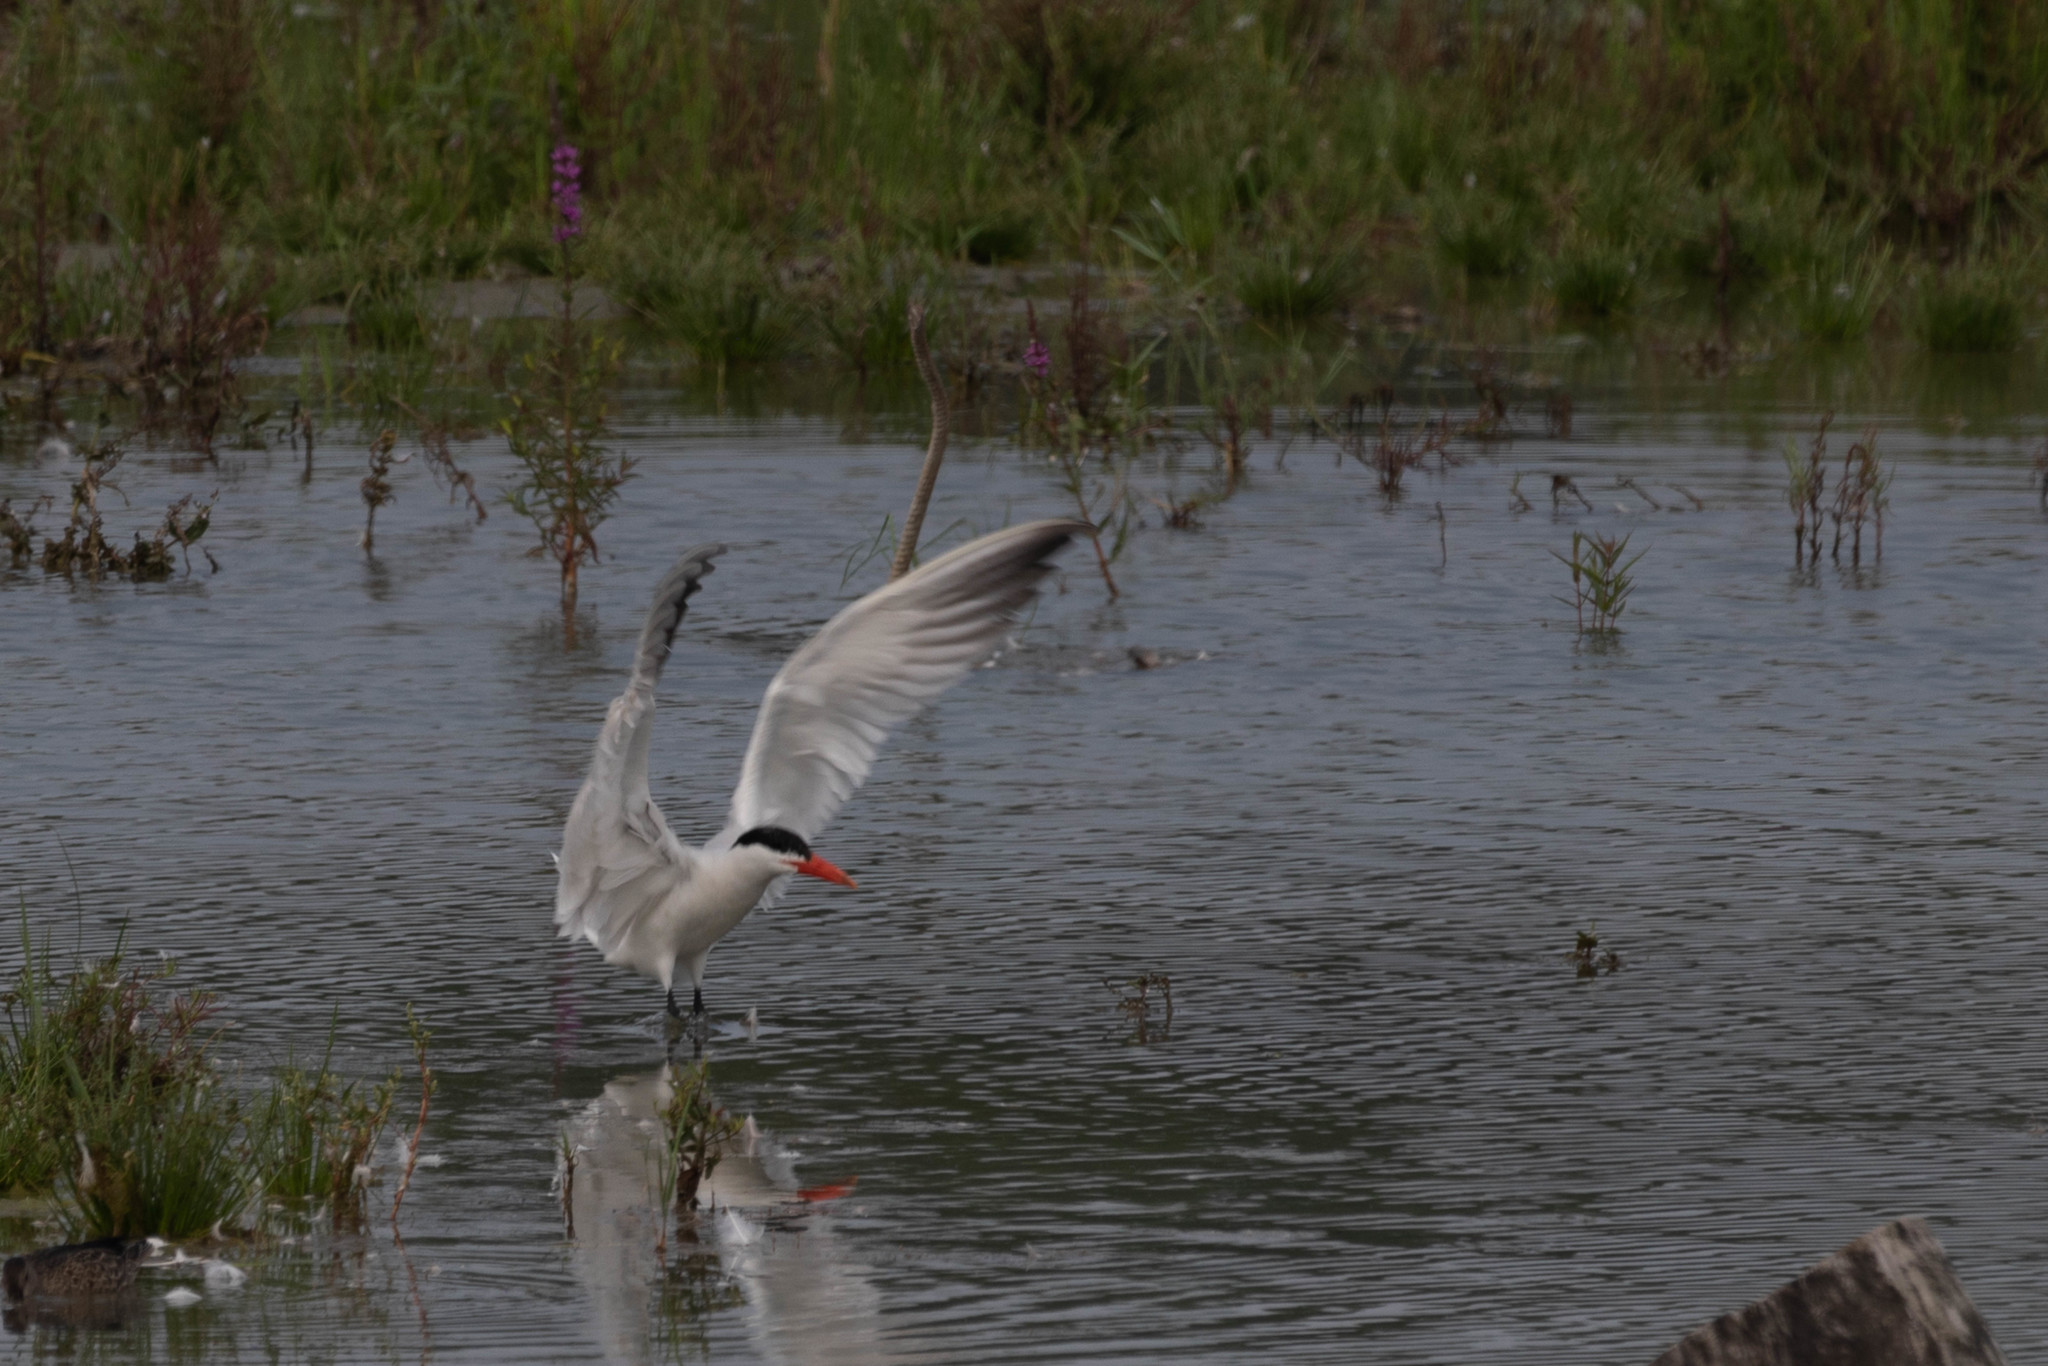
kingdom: Animalia
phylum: Chordata
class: Aves
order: Charadriiformes
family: Laridae
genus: Hydroprogne
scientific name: Hydroprogne caspia
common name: Caspian tern
